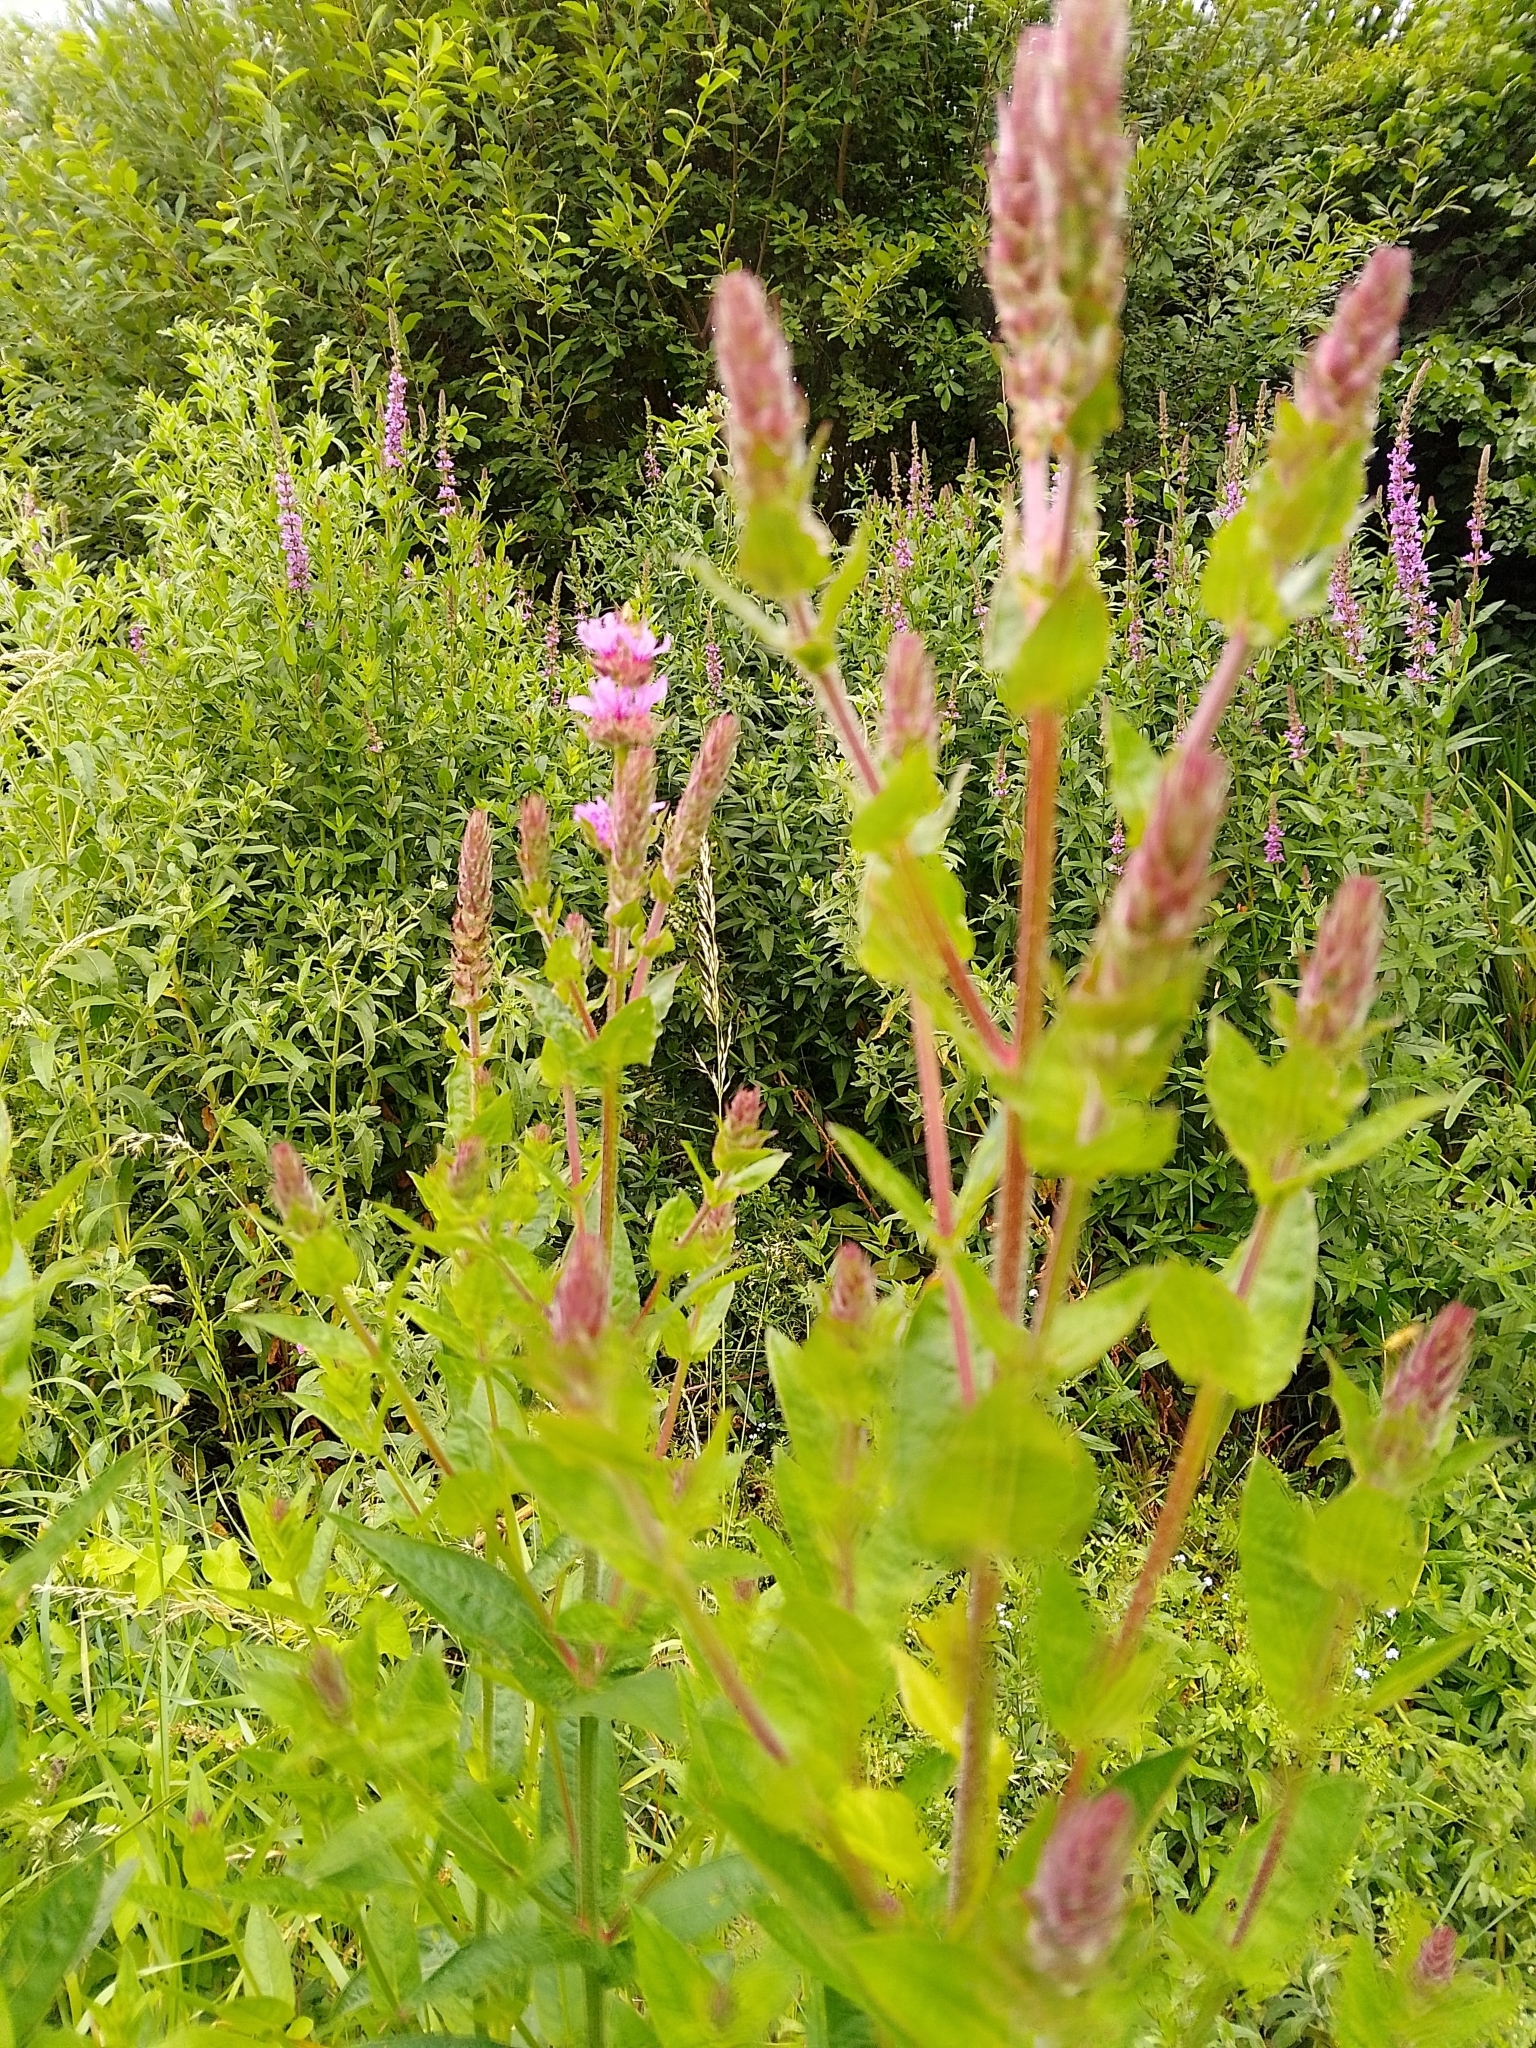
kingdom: Plantae
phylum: Tracheophyta
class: Magnoliopsida
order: Myrtales
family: Lythraceae
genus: Lythrum
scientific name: Lythrum salicaria
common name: Purple loosestrife
